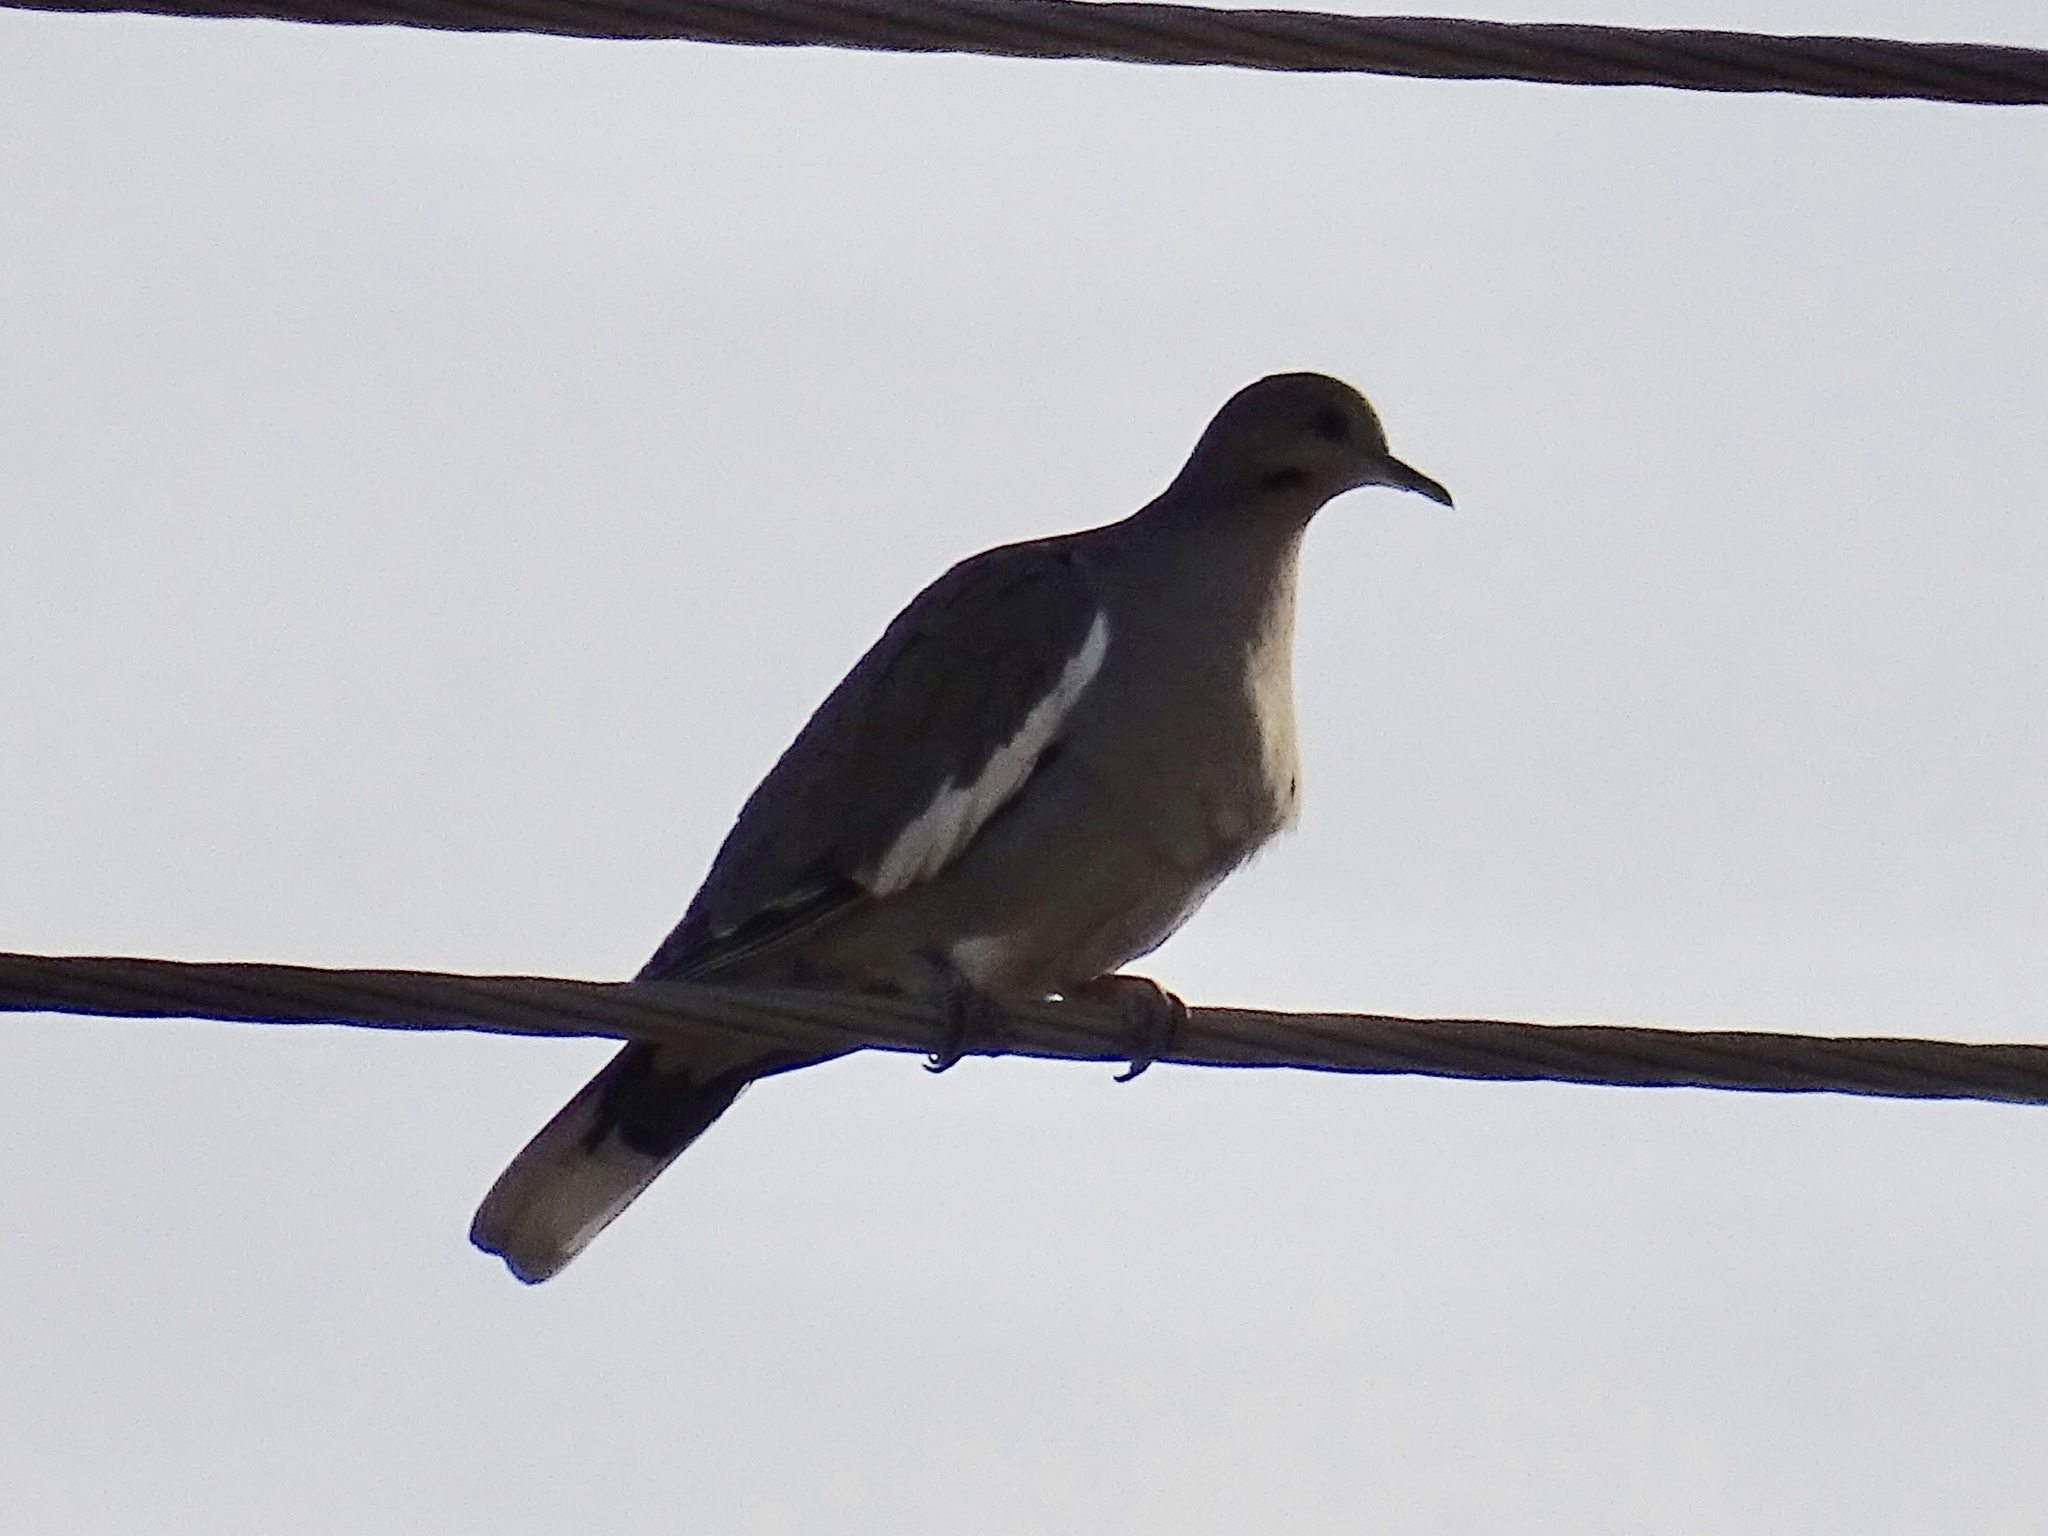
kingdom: Animalia
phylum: Chordata
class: Aves
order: Columbiformes
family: Columbidae
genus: Zenaida
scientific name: Zenaida asiatica
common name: White-winged dove
